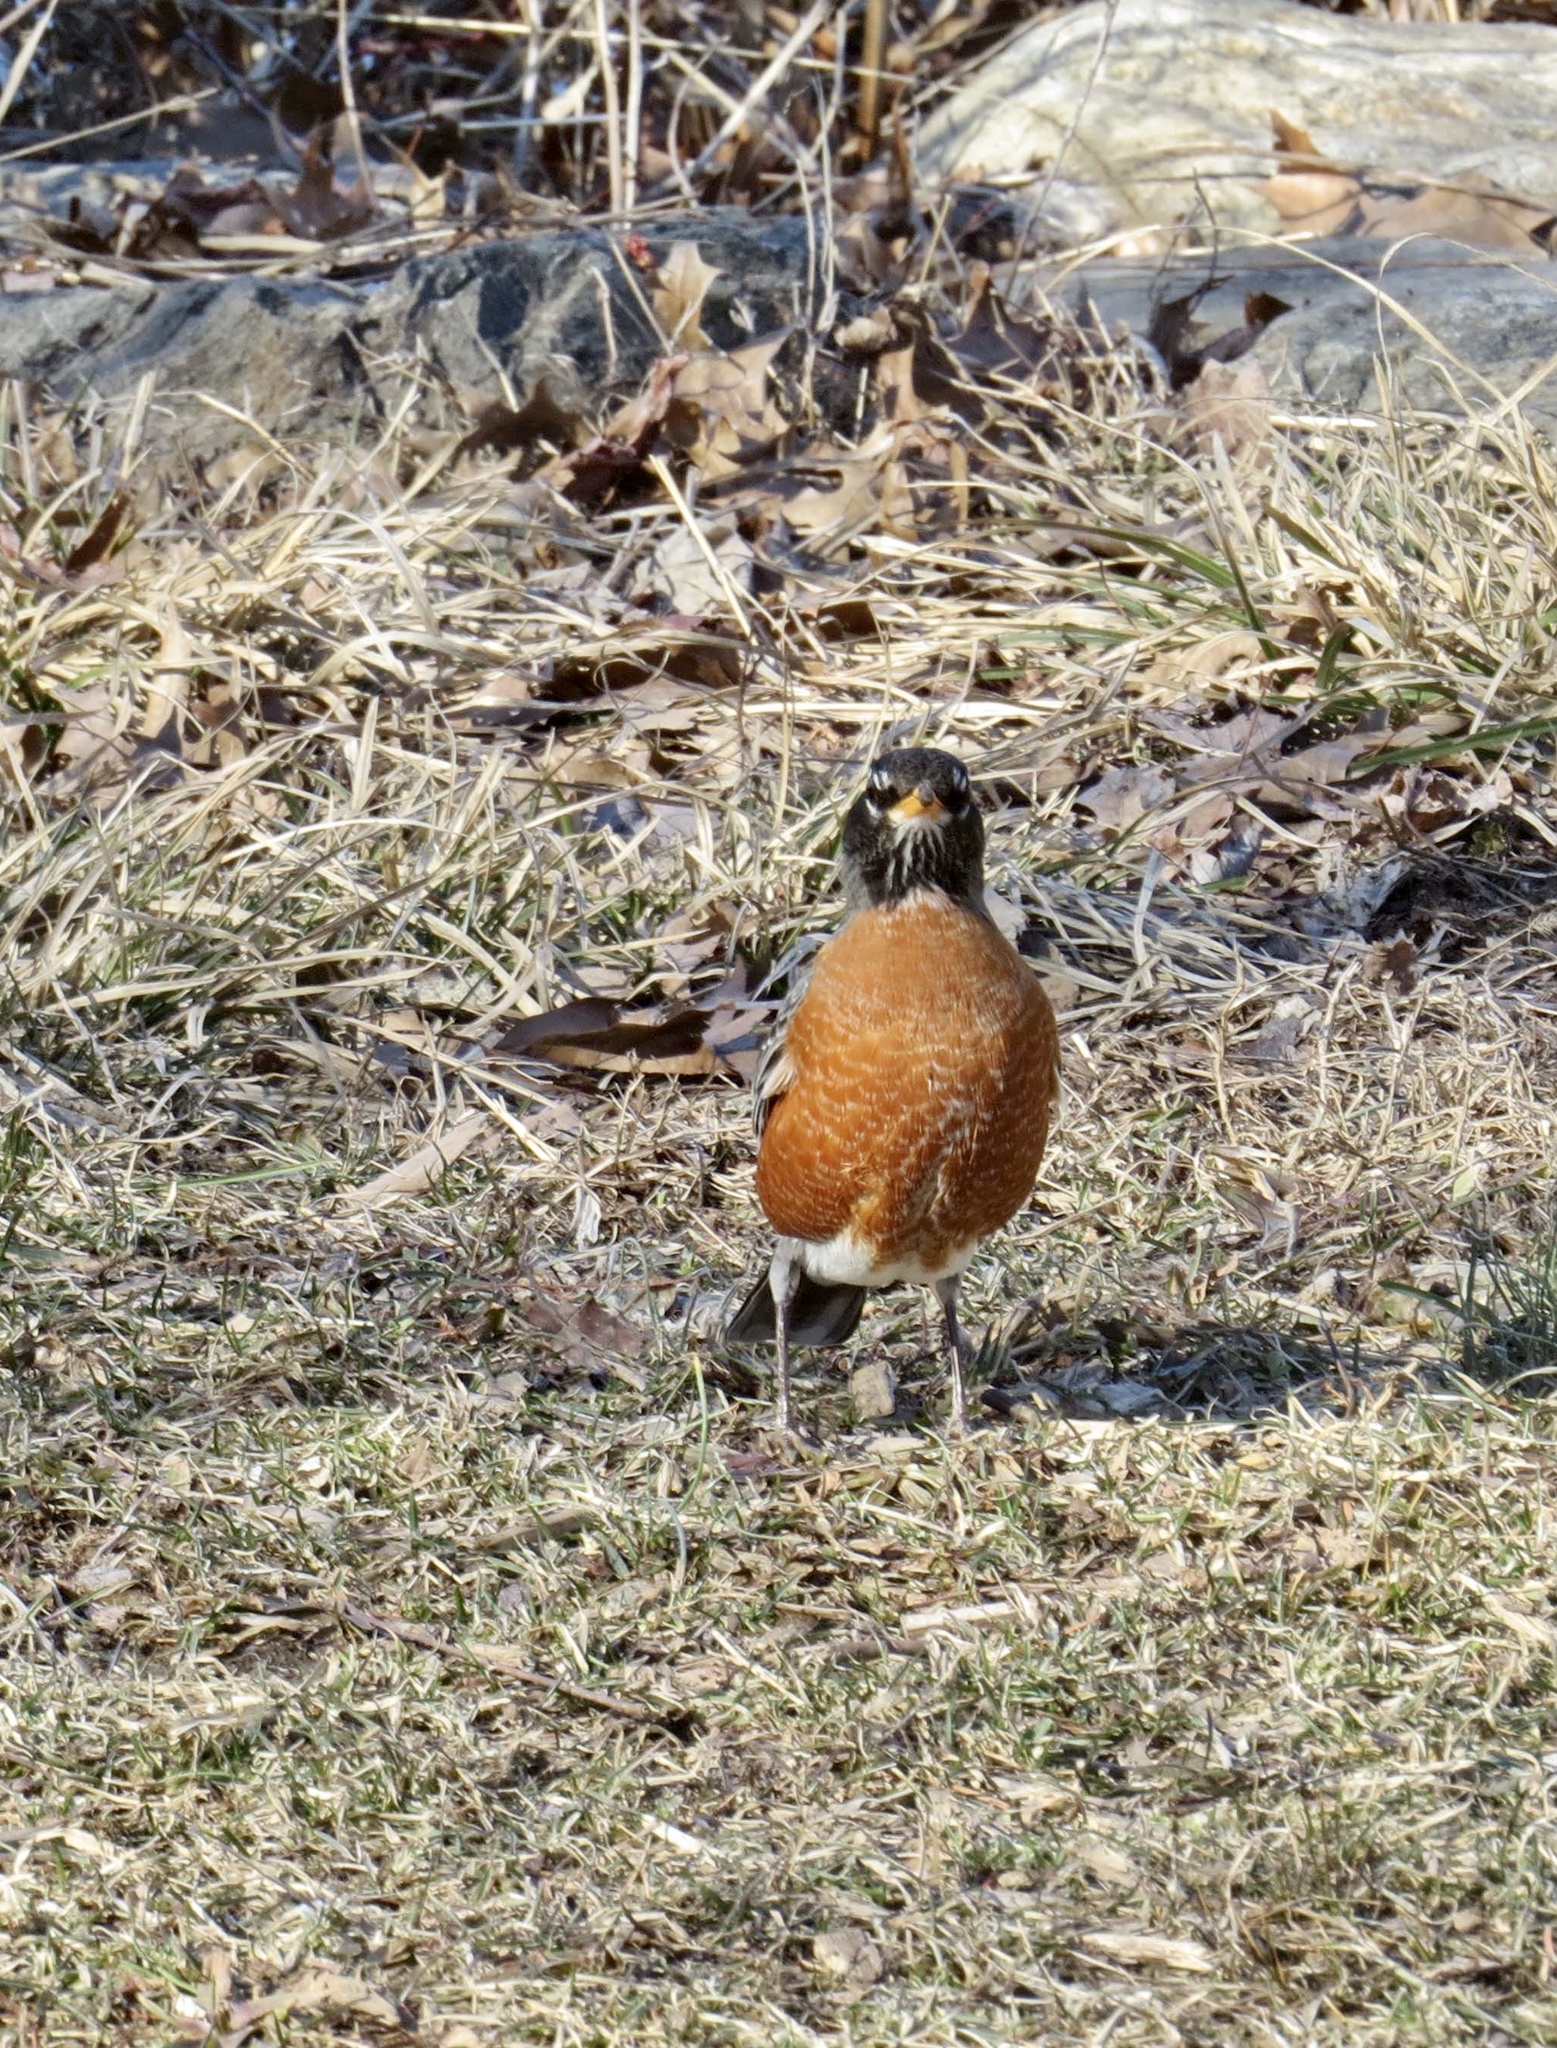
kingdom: Animalia
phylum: Chordata
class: Aves
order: Passeriformes
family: Turdidae
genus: Turdus
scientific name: Turdus migratorius
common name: American robin
